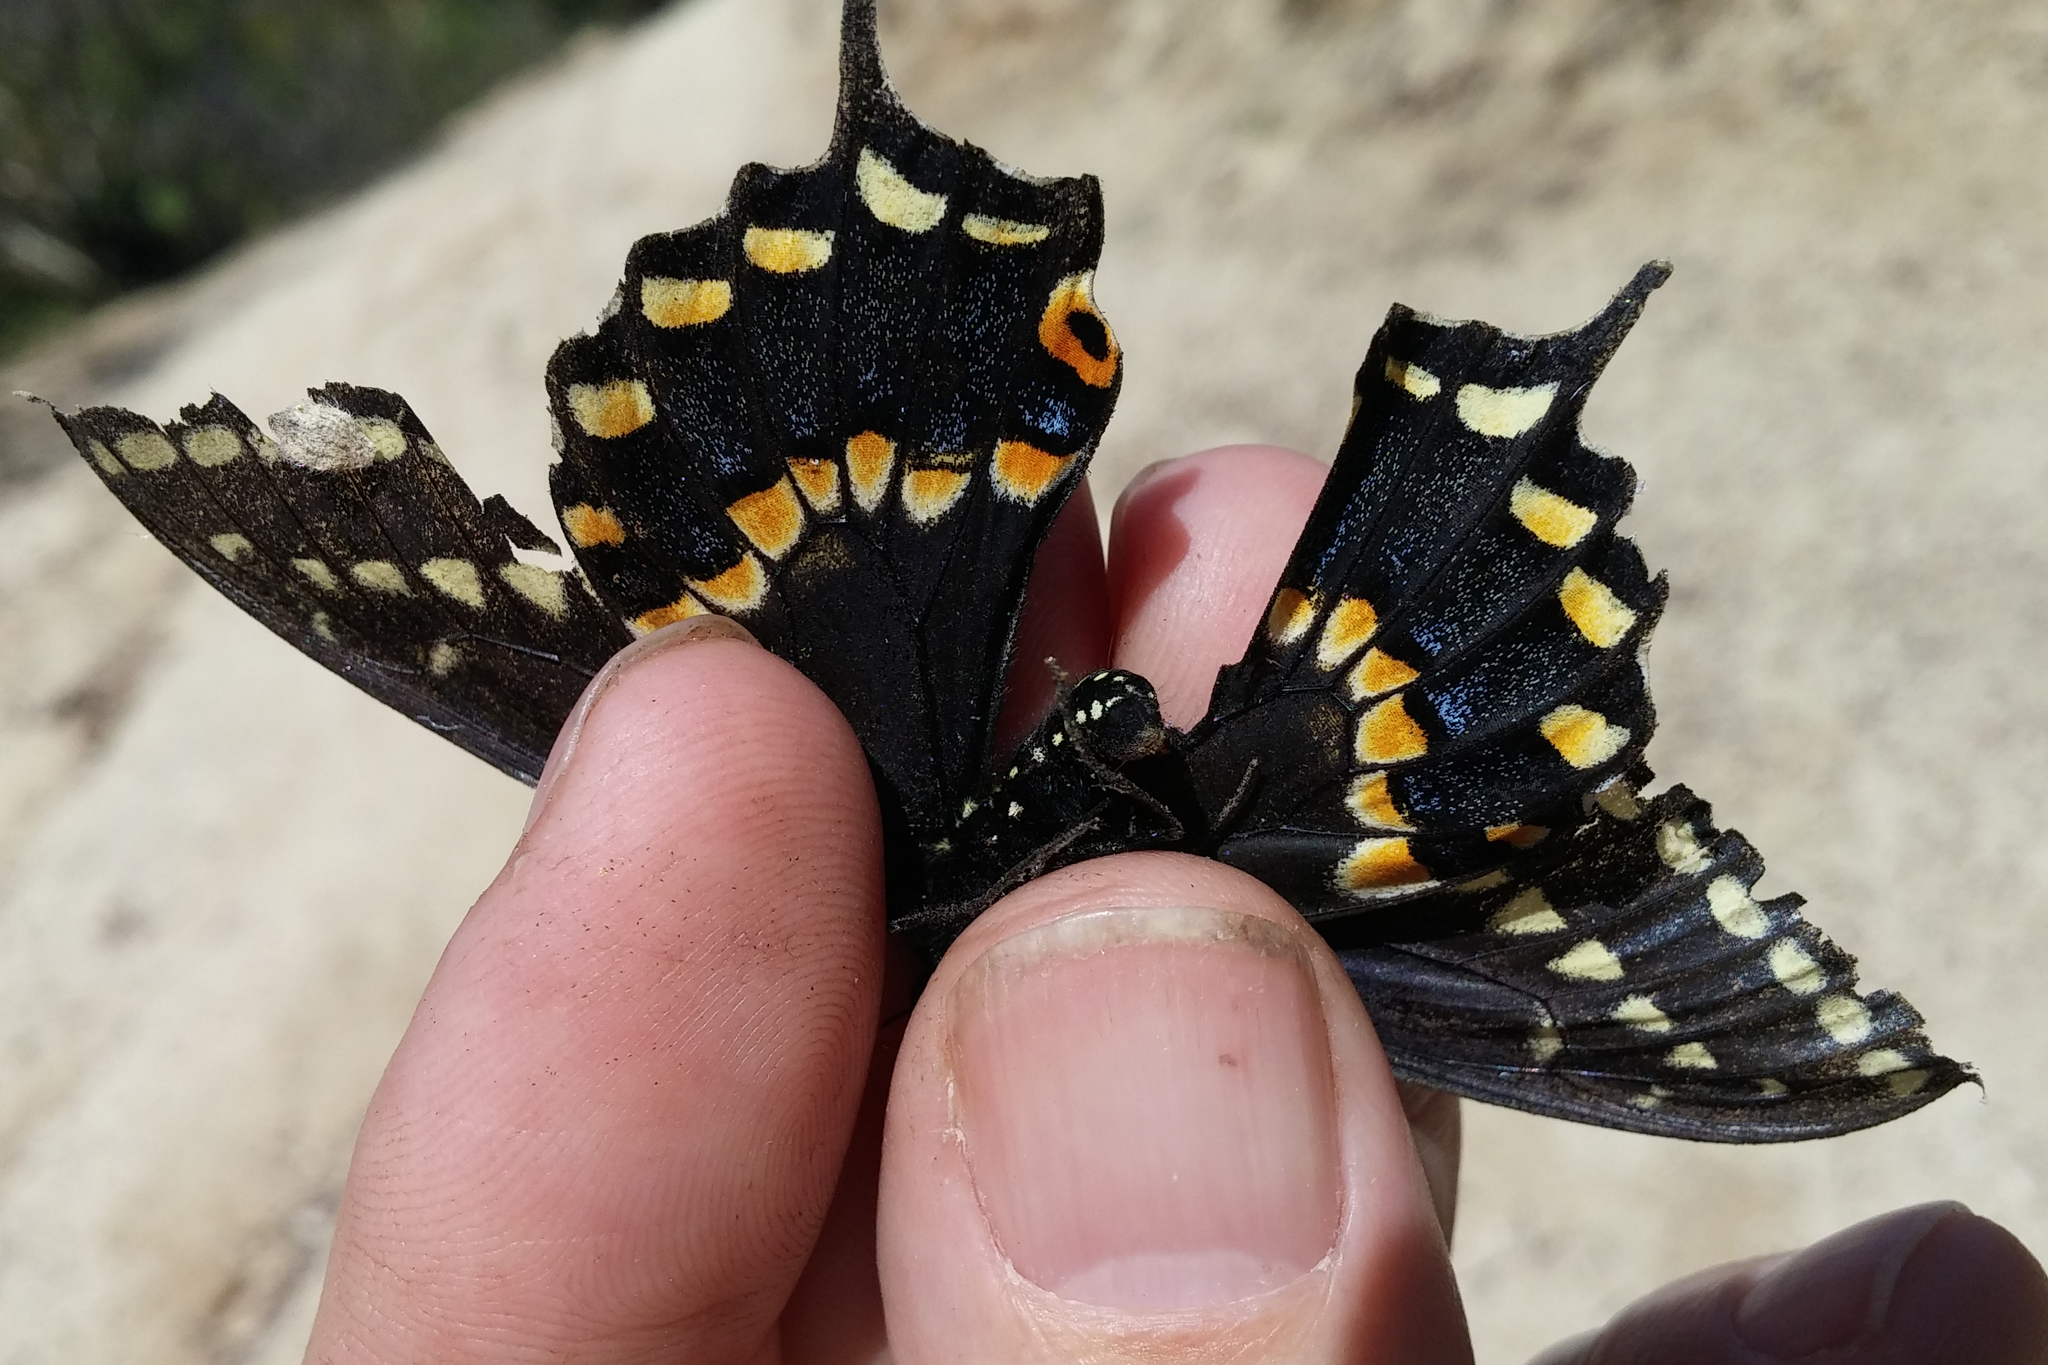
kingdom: Animalia
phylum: Arthropoda
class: Insecta
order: Lepidoptera
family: Papilionidae
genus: Papilio
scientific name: Papilio polyxenes
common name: Black swallowtail
